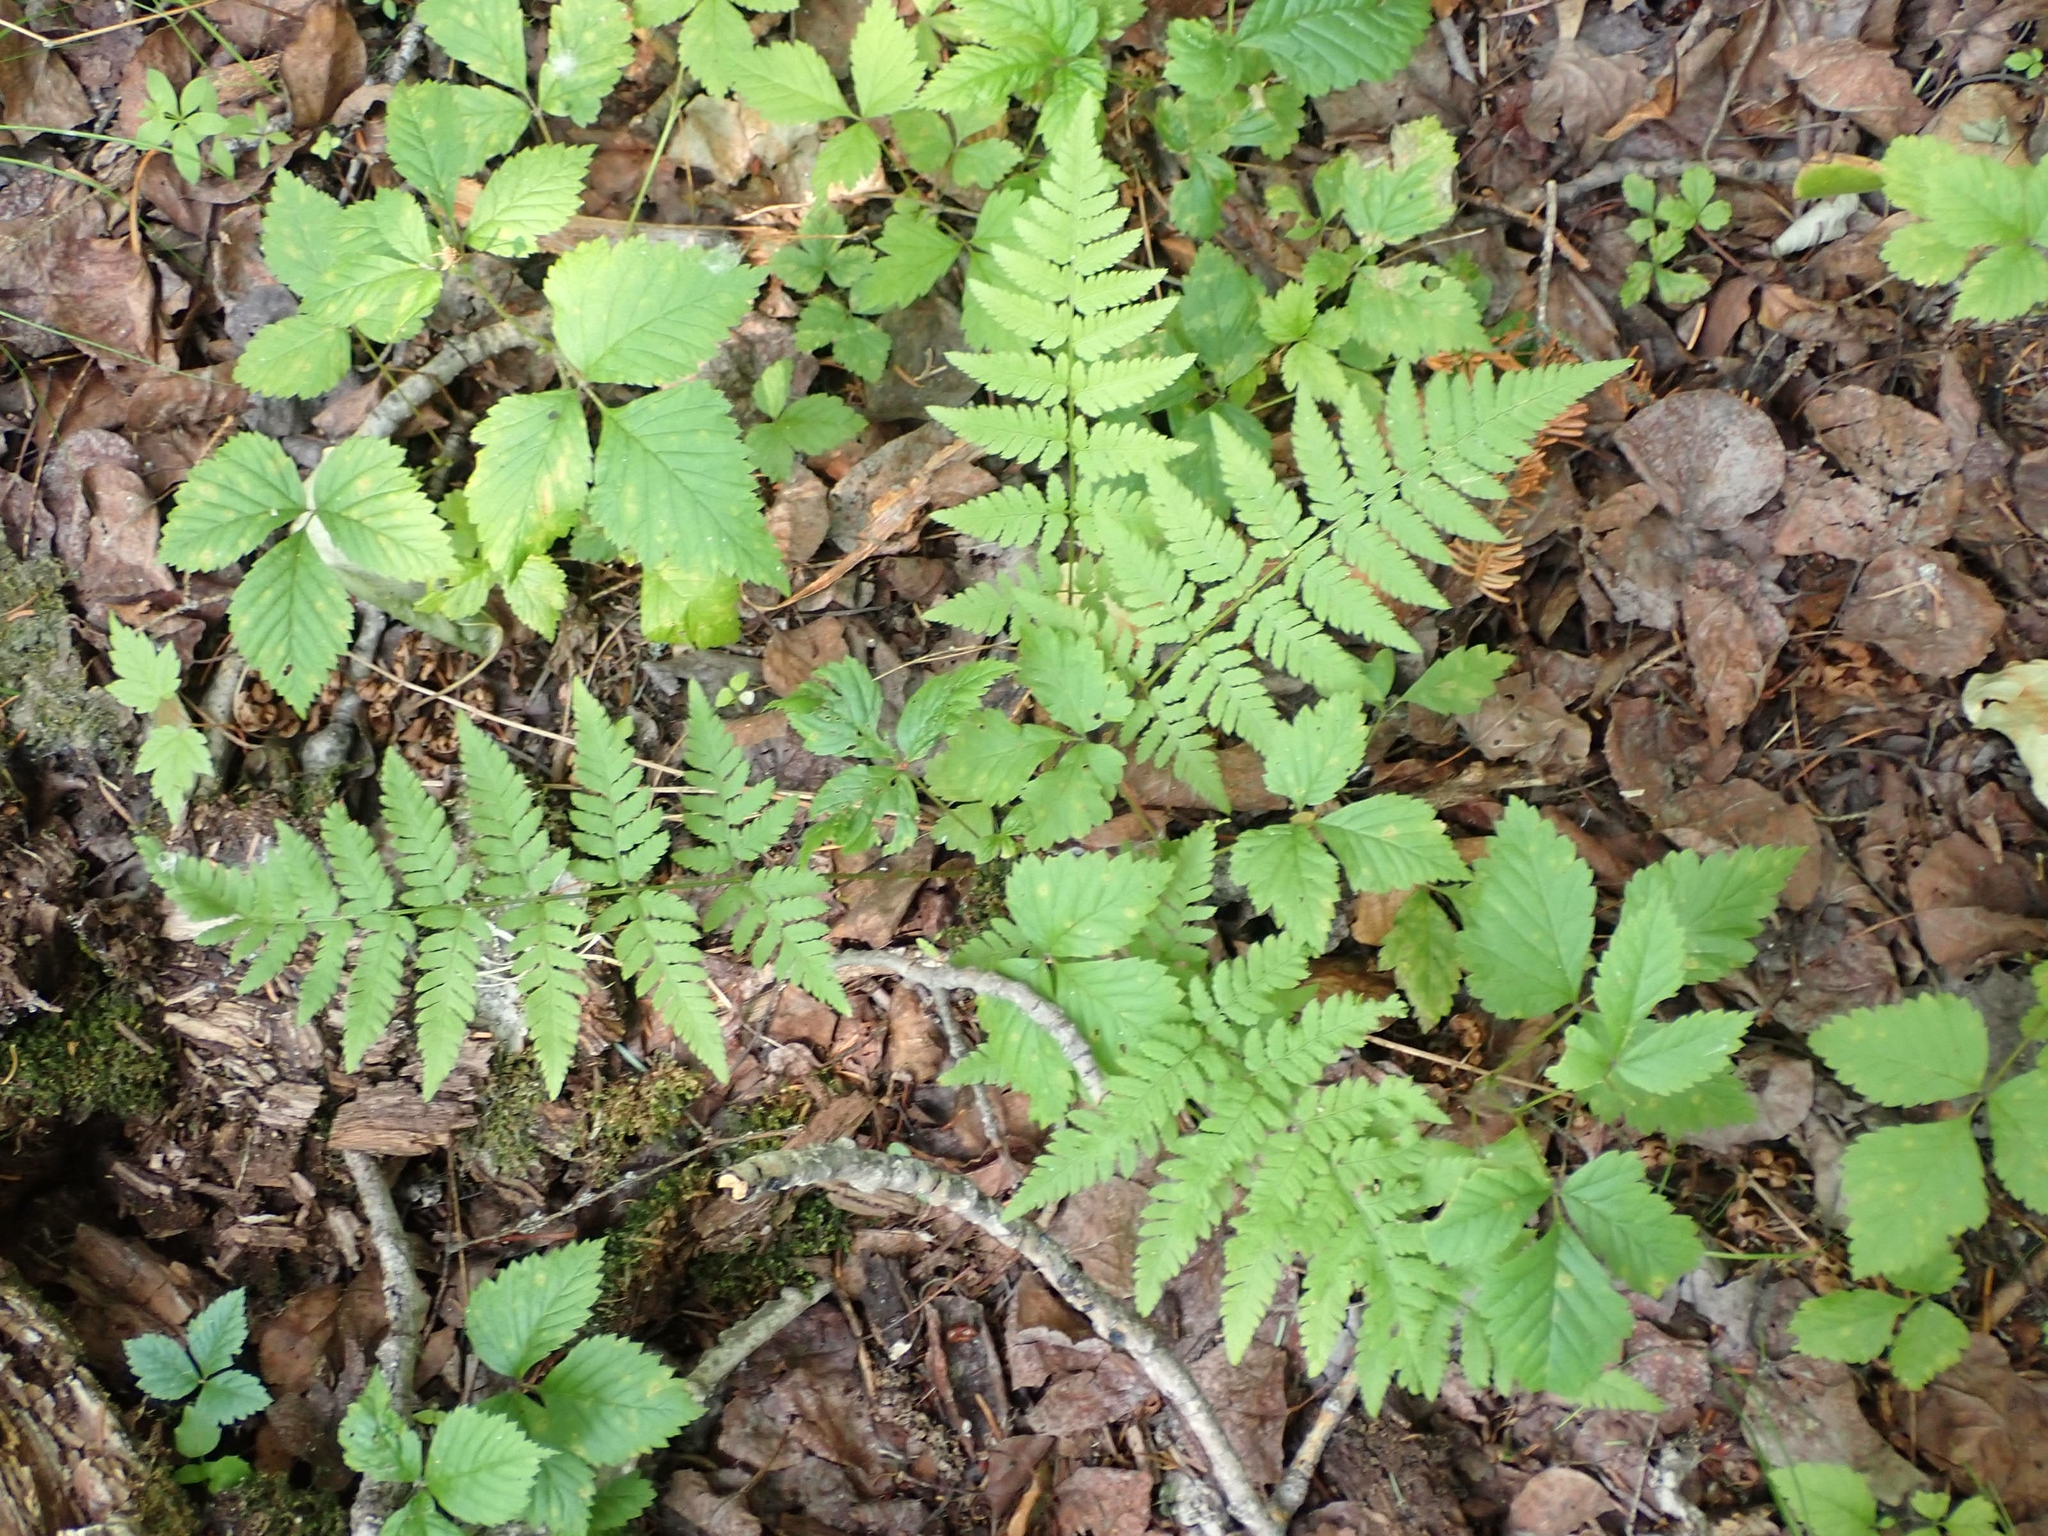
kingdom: Plantae
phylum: Tracheophyta
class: Polypodiopsida
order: Polypodiales
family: Dryopteridaceae
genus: Dryopteris
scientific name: Dryopteris carthusiana
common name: Narrow buckler-fern
